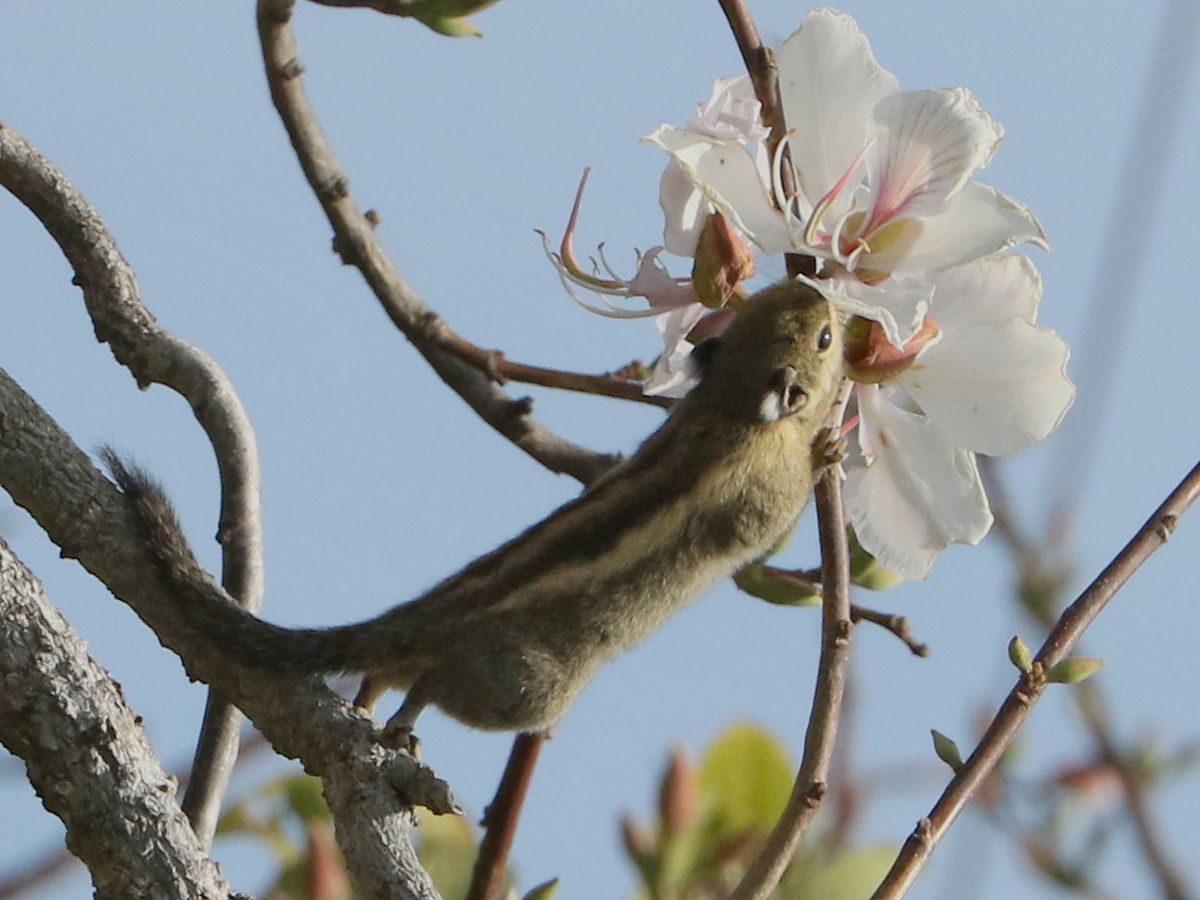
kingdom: Animalia
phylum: Chordata
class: Mammalia
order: Rodentia
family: Sciuridae
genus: Tamiops
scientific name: Tamiops mcclellandii
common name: Himalayan striped squirrel
